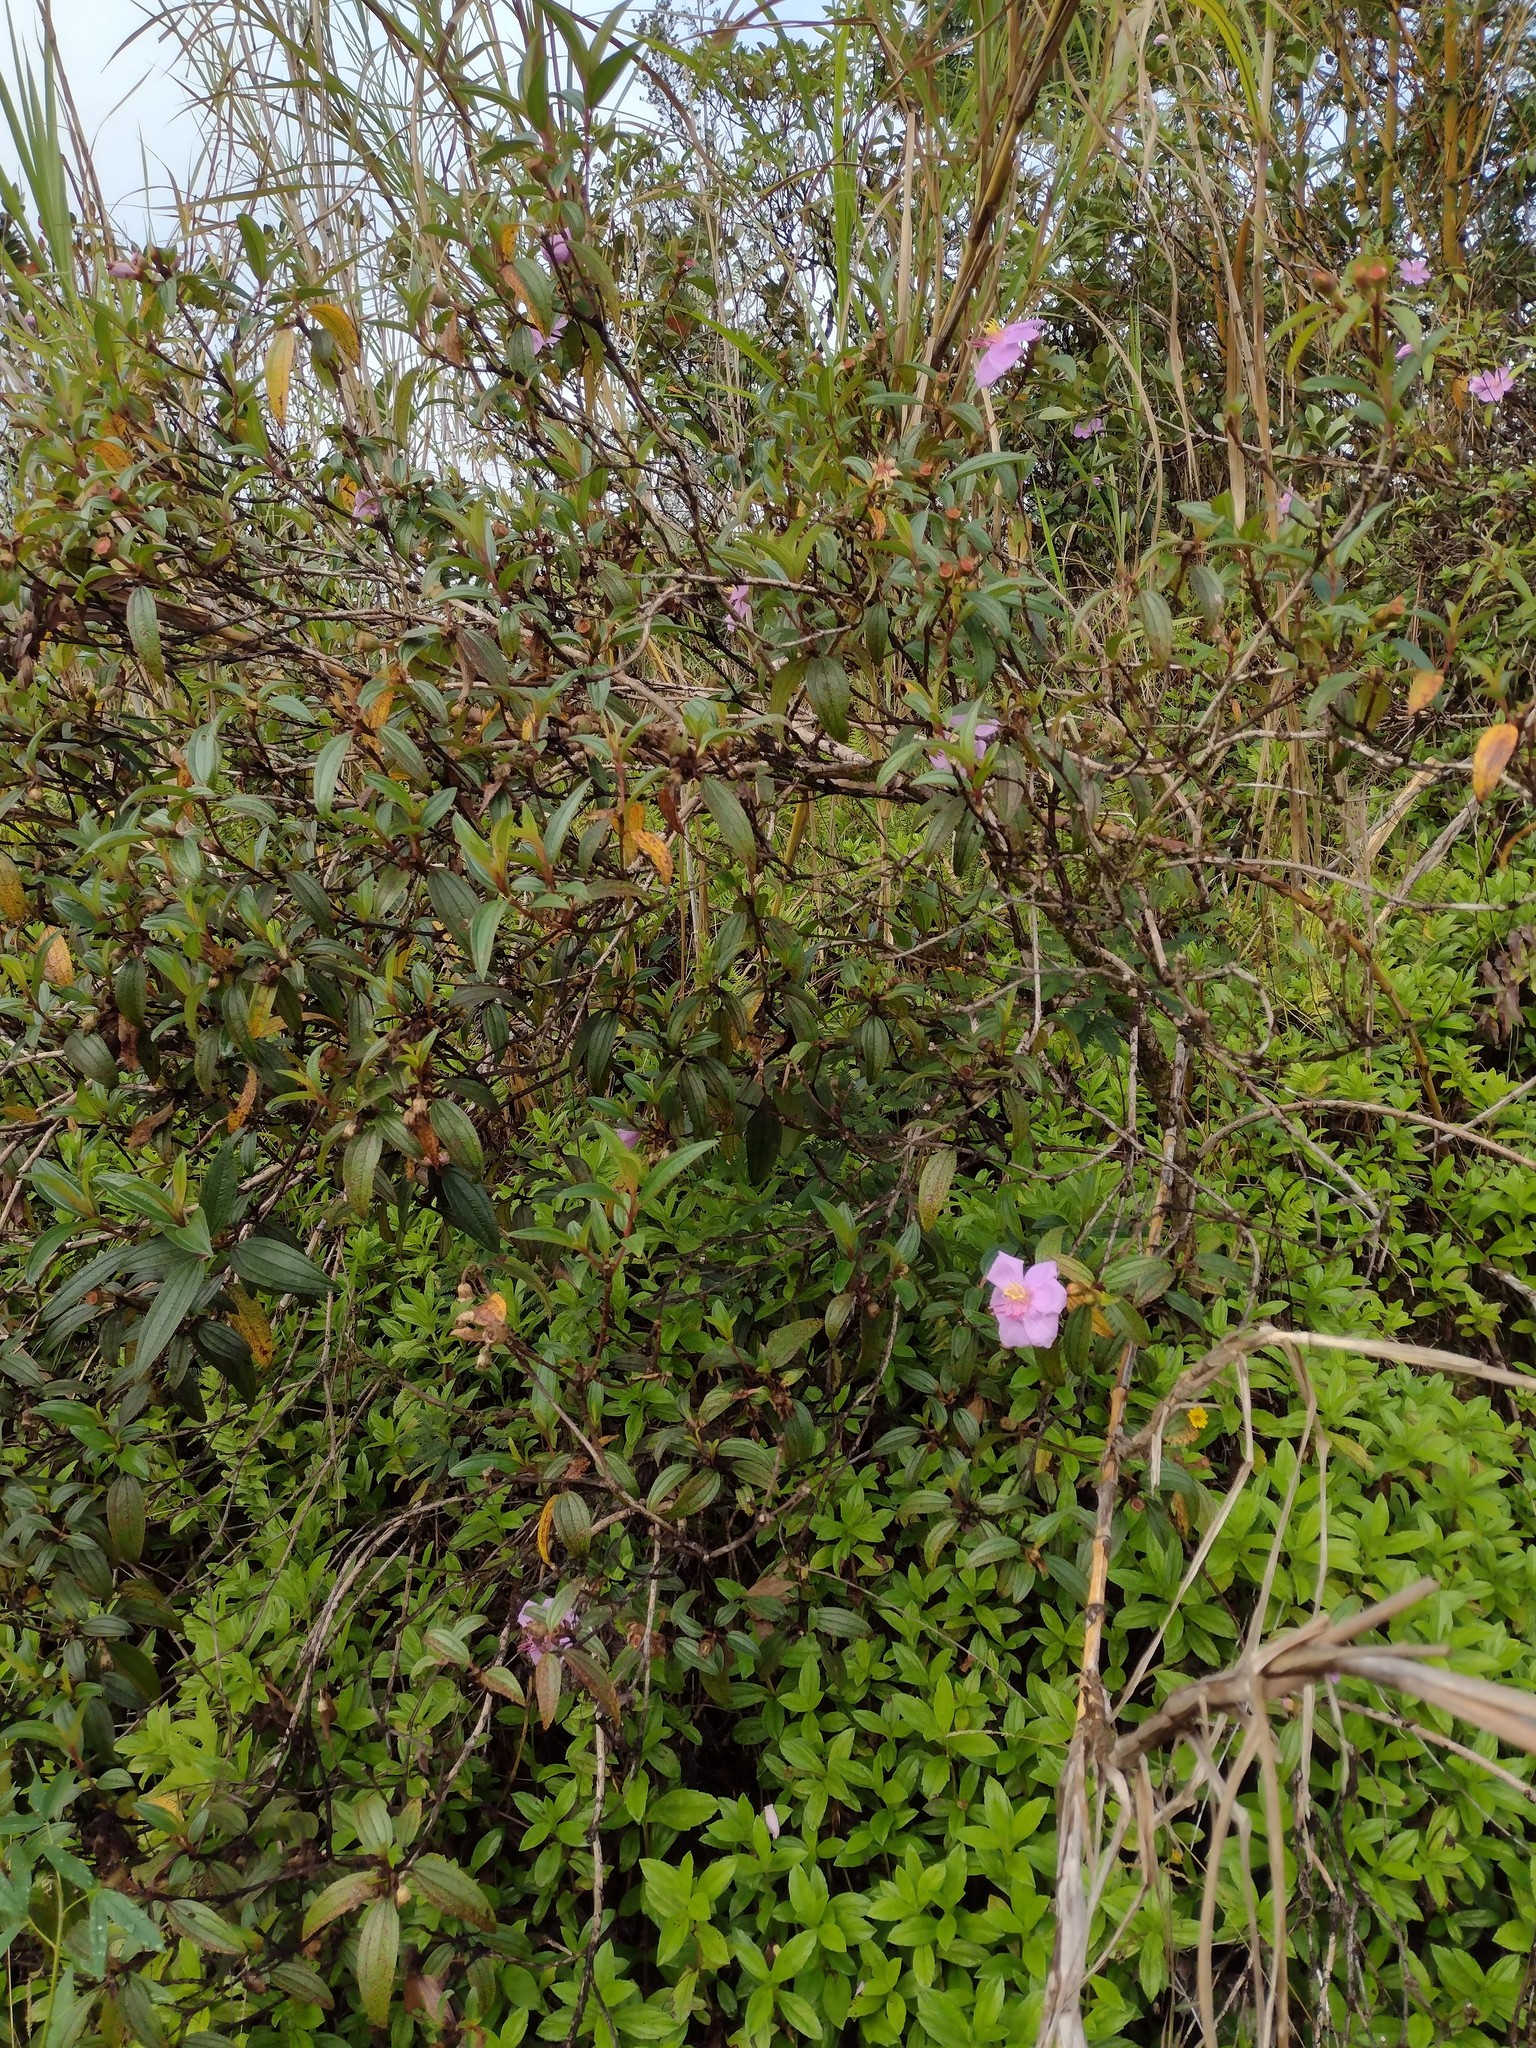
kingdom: Plantae
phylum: Tracheophyta
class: Magnoliopsida
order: Myrtales
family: Melastomataceae
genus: Melastoma
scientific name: Melastoma malabathricum
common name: Indian-rhododendron
